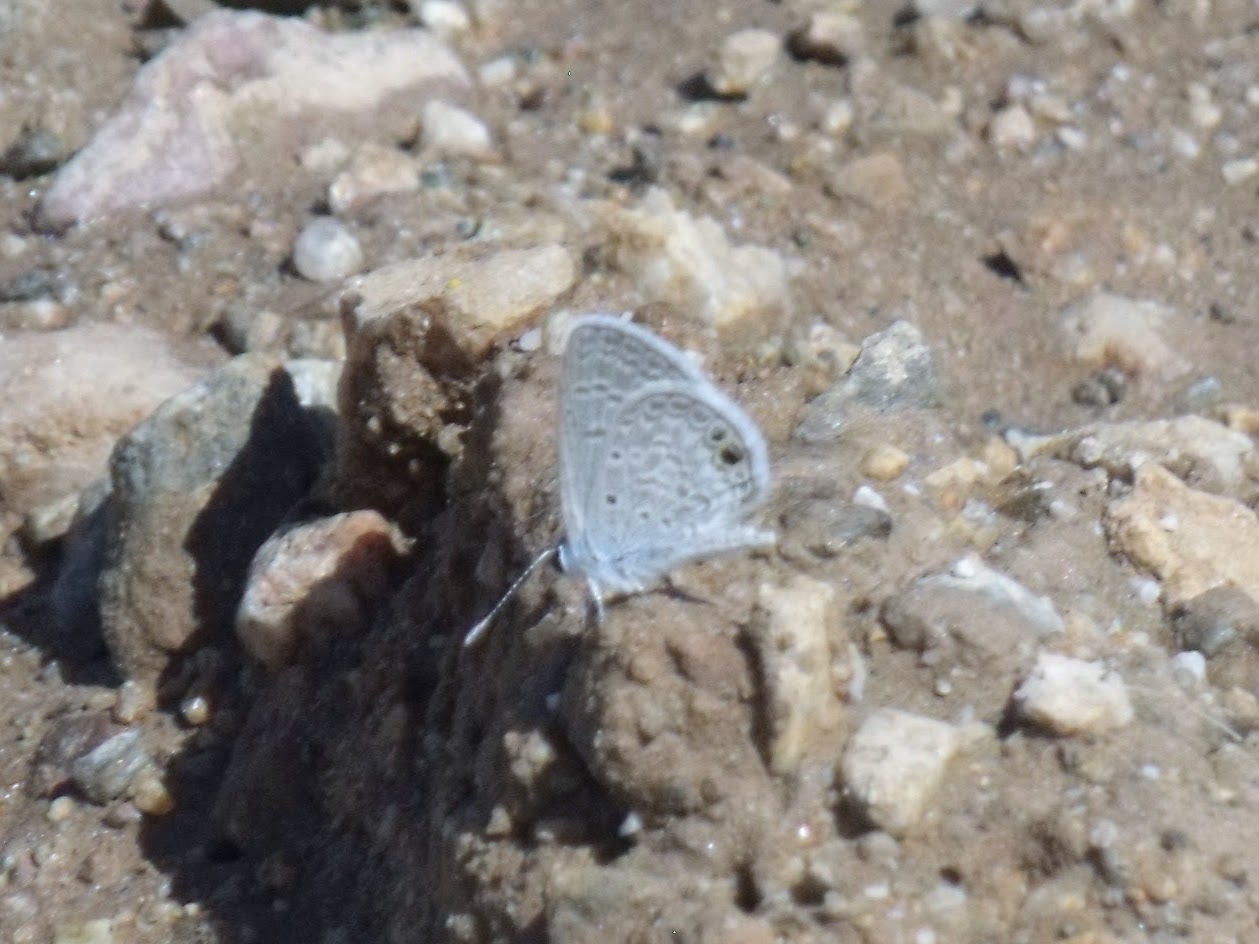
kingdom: Animalia
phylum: Arthropoda
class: Insecta
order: Lepidoptera
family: Lycaenidae
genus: Hemiargus
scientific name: Hemiargus ceraunus
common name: Ceraunus blue
